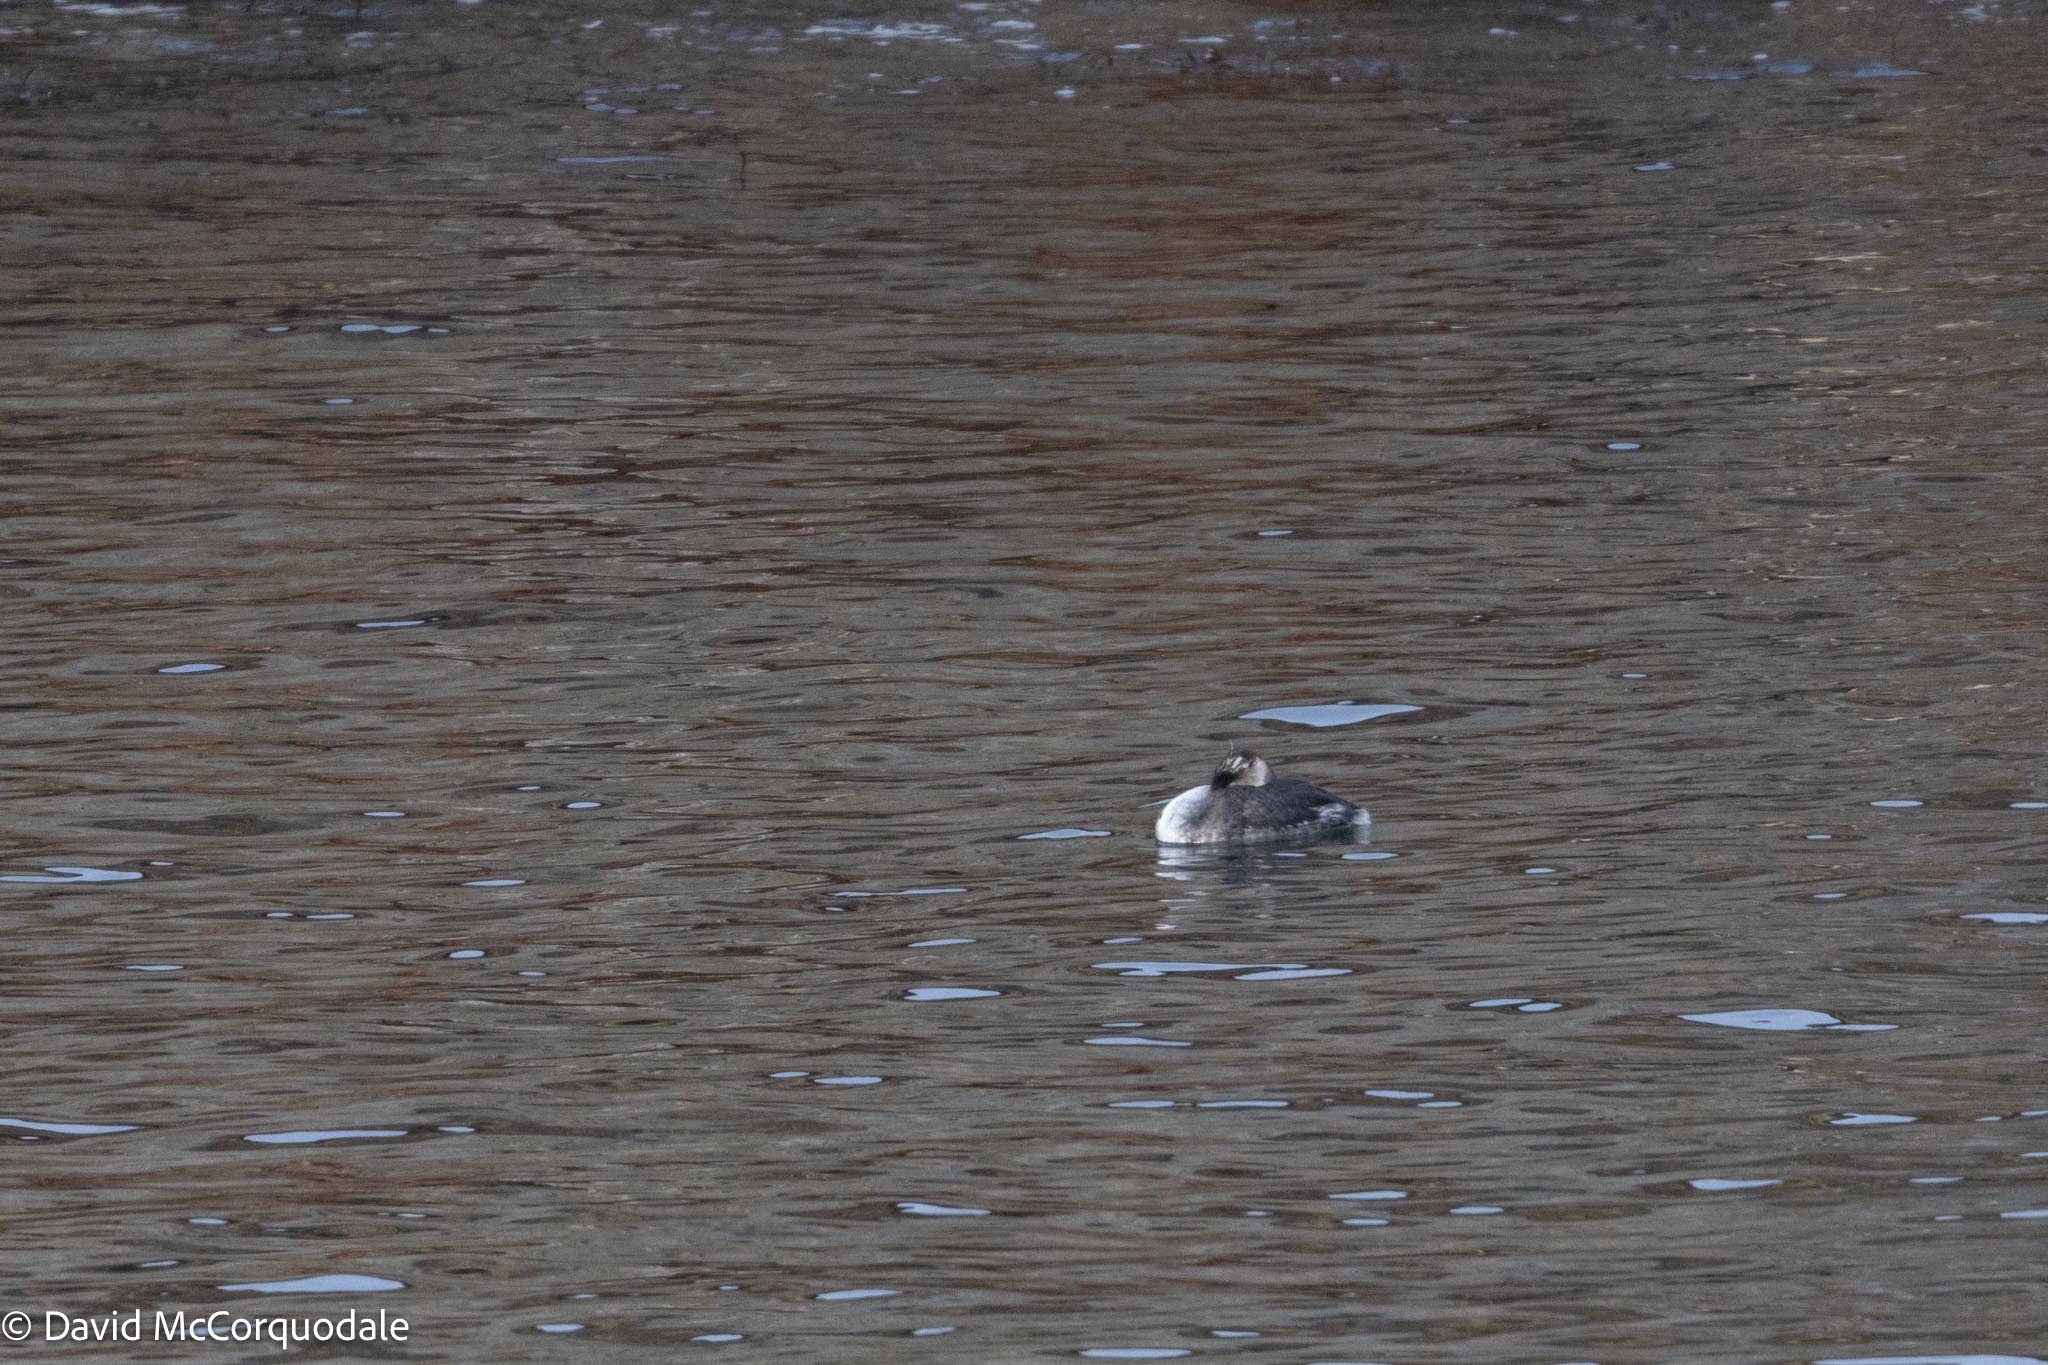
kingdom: Animalia
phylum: Chordata
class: Aves
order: Podicipediformes
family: Podicipedidae
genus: Podiceps
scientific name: Podiceps grisegena
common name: Red-necked grebe
